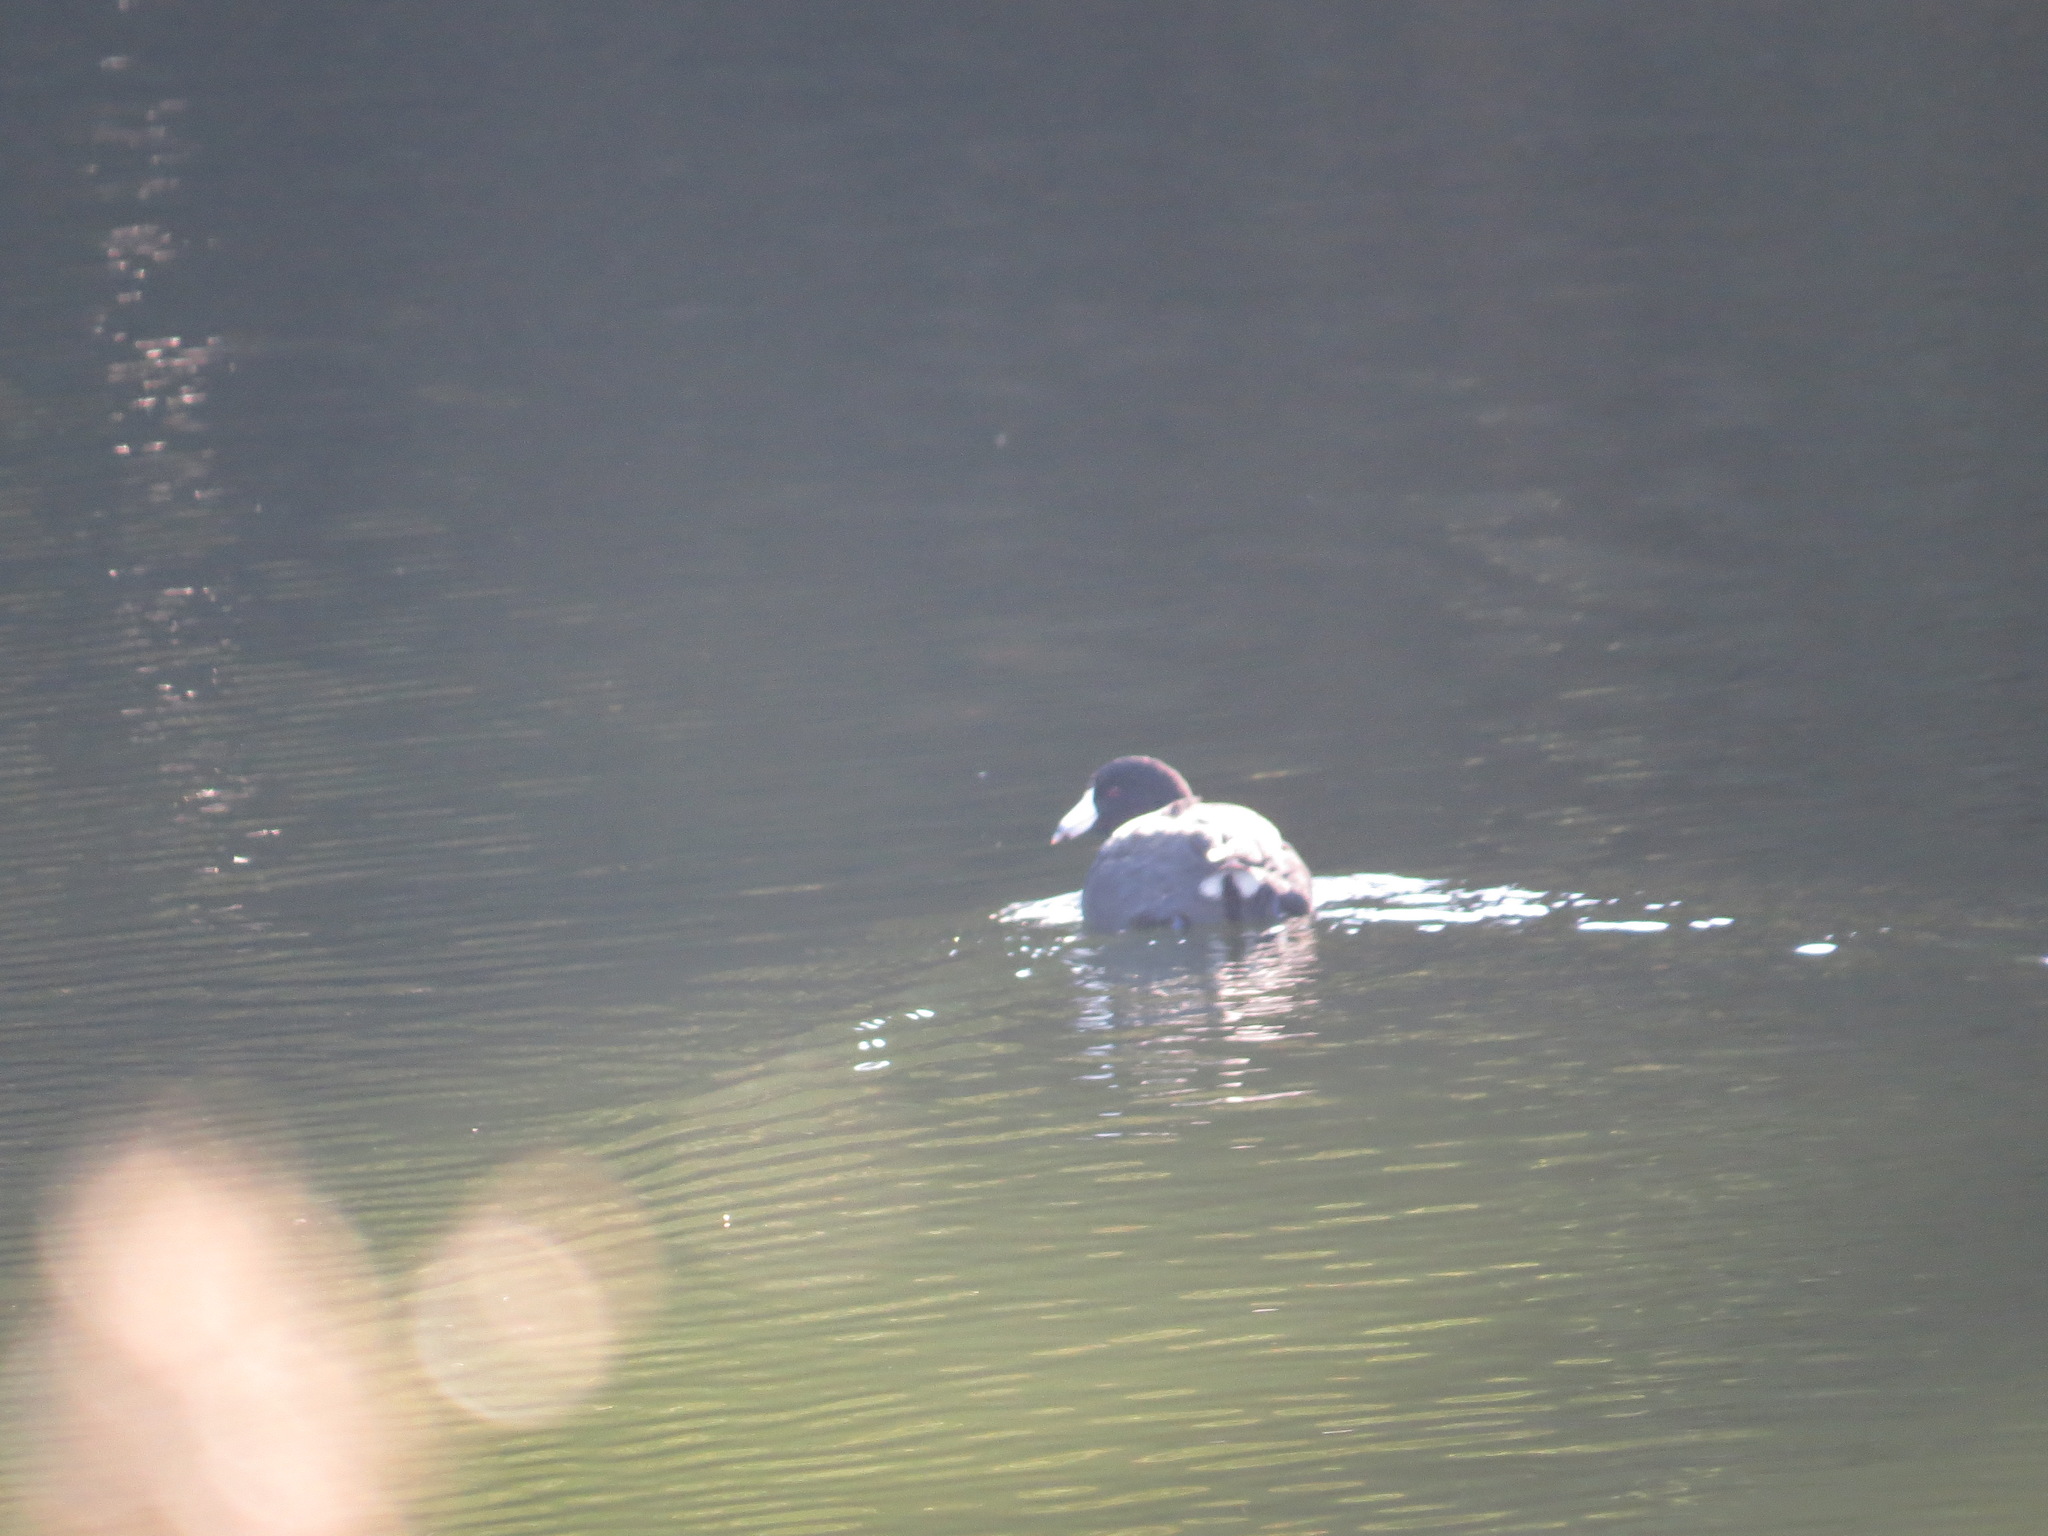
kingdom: Animalia
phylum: Chordata
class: Aves
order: Gruiformes
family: Rallidae
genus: Fulica
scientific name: Fulica americana
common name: American coot
